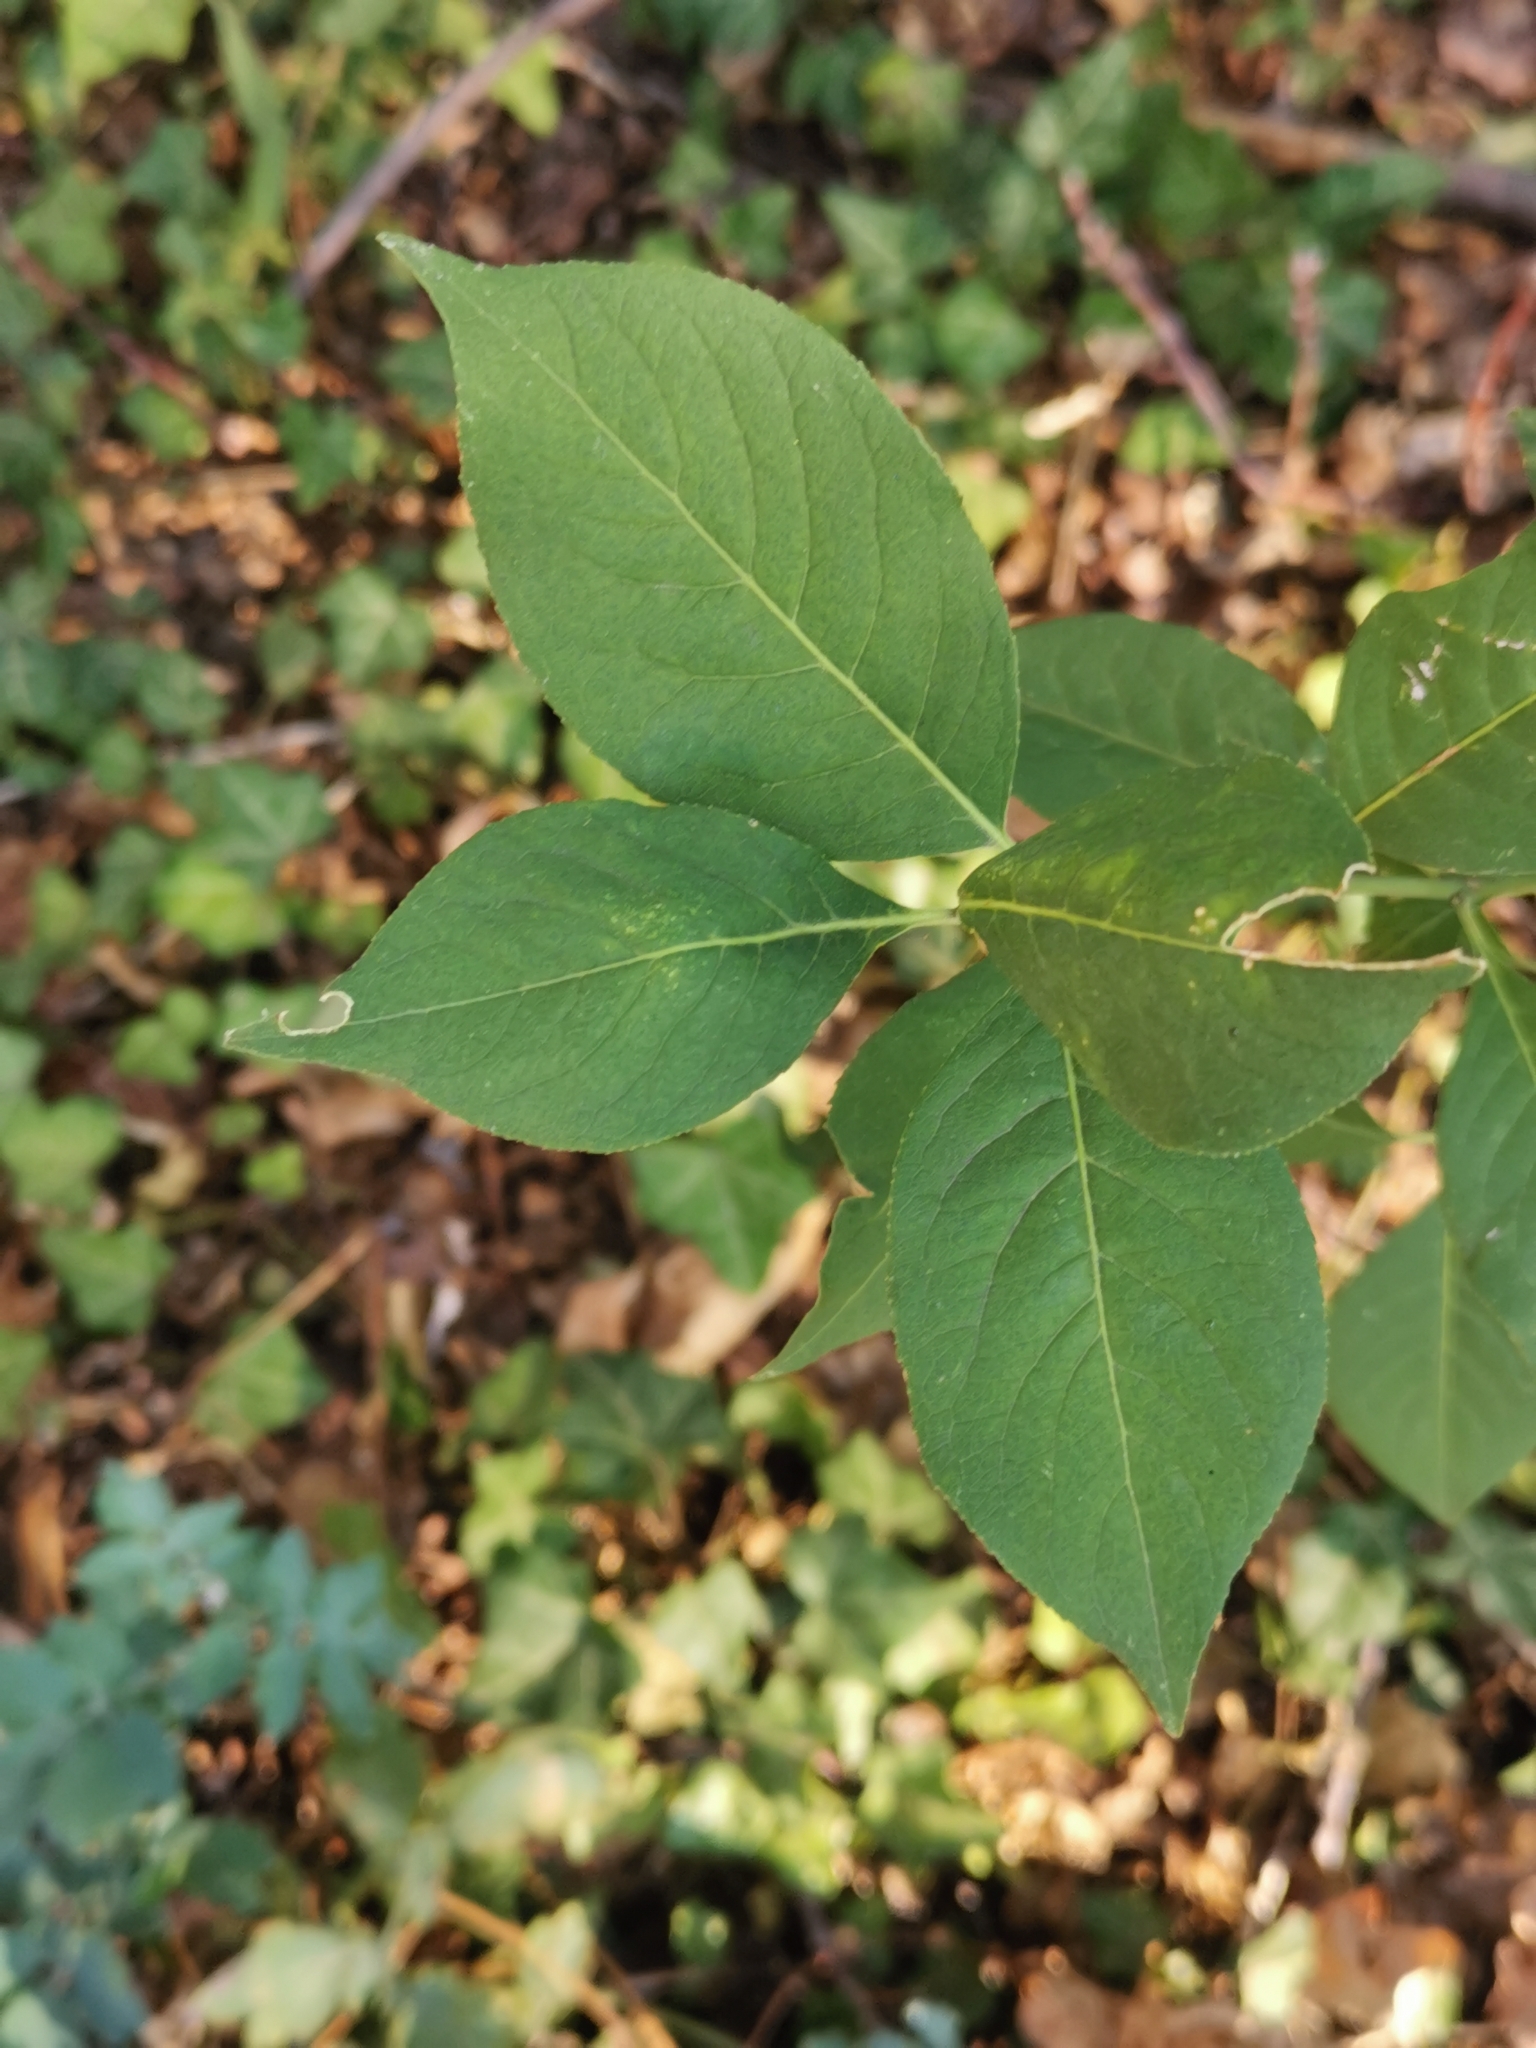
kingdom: Plantae
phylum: Tracheophyta
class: Magnoliopsida
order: Celastrales
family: Celastraceae
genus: Euonymus
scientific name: Euonymus europaeus
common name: Spindle
